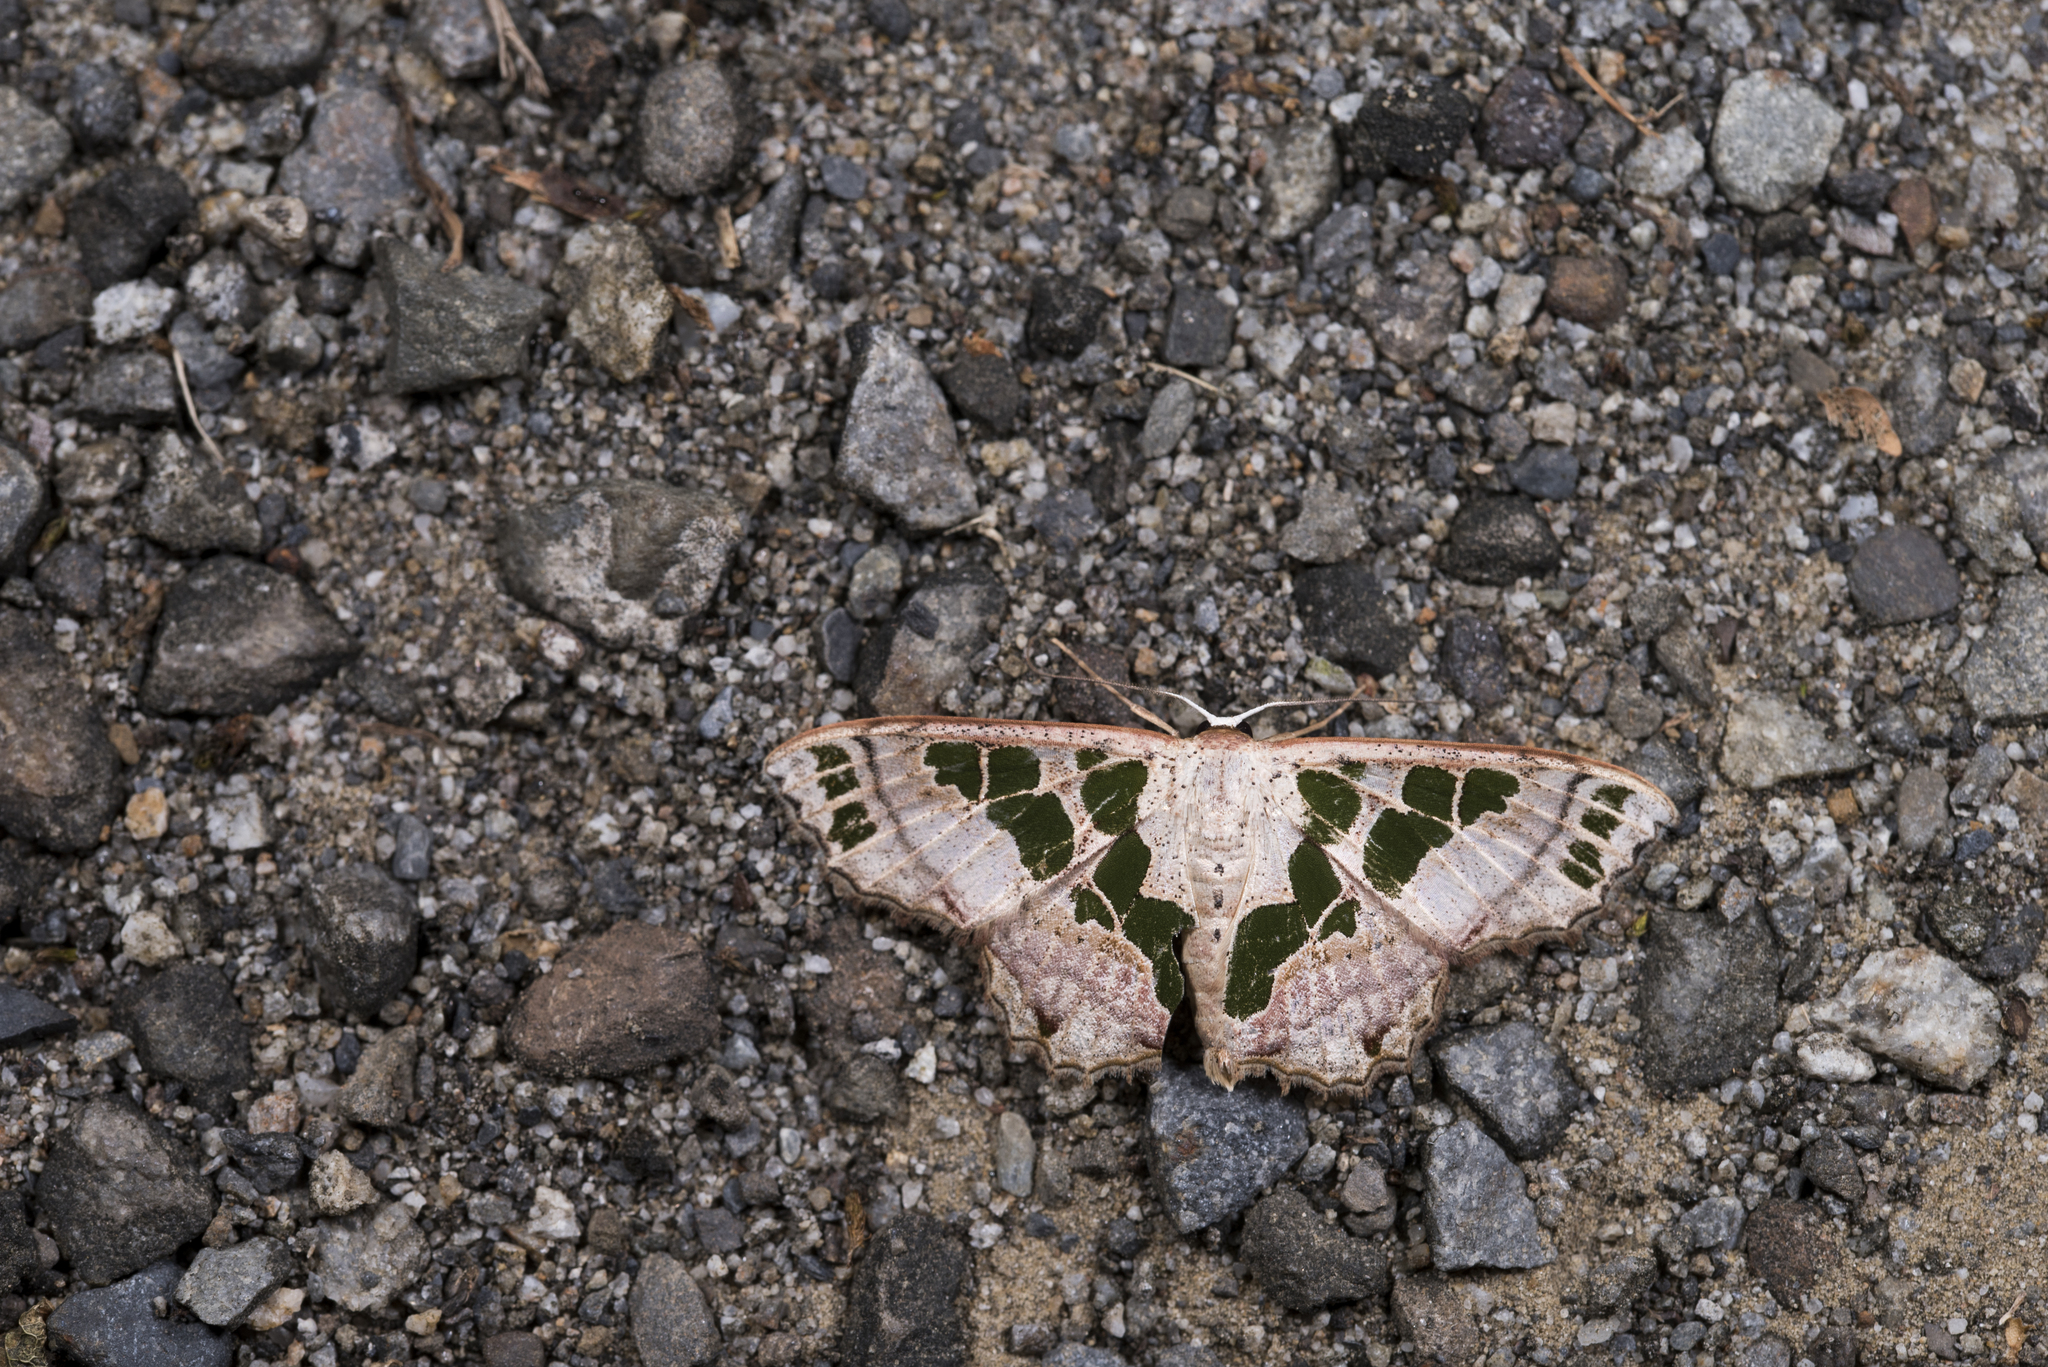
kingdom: Animalia
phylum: Arthropoda
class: Insecta
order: Lepidoptera
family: Geometridae
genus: Scopula
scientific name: Scopula divisaria
